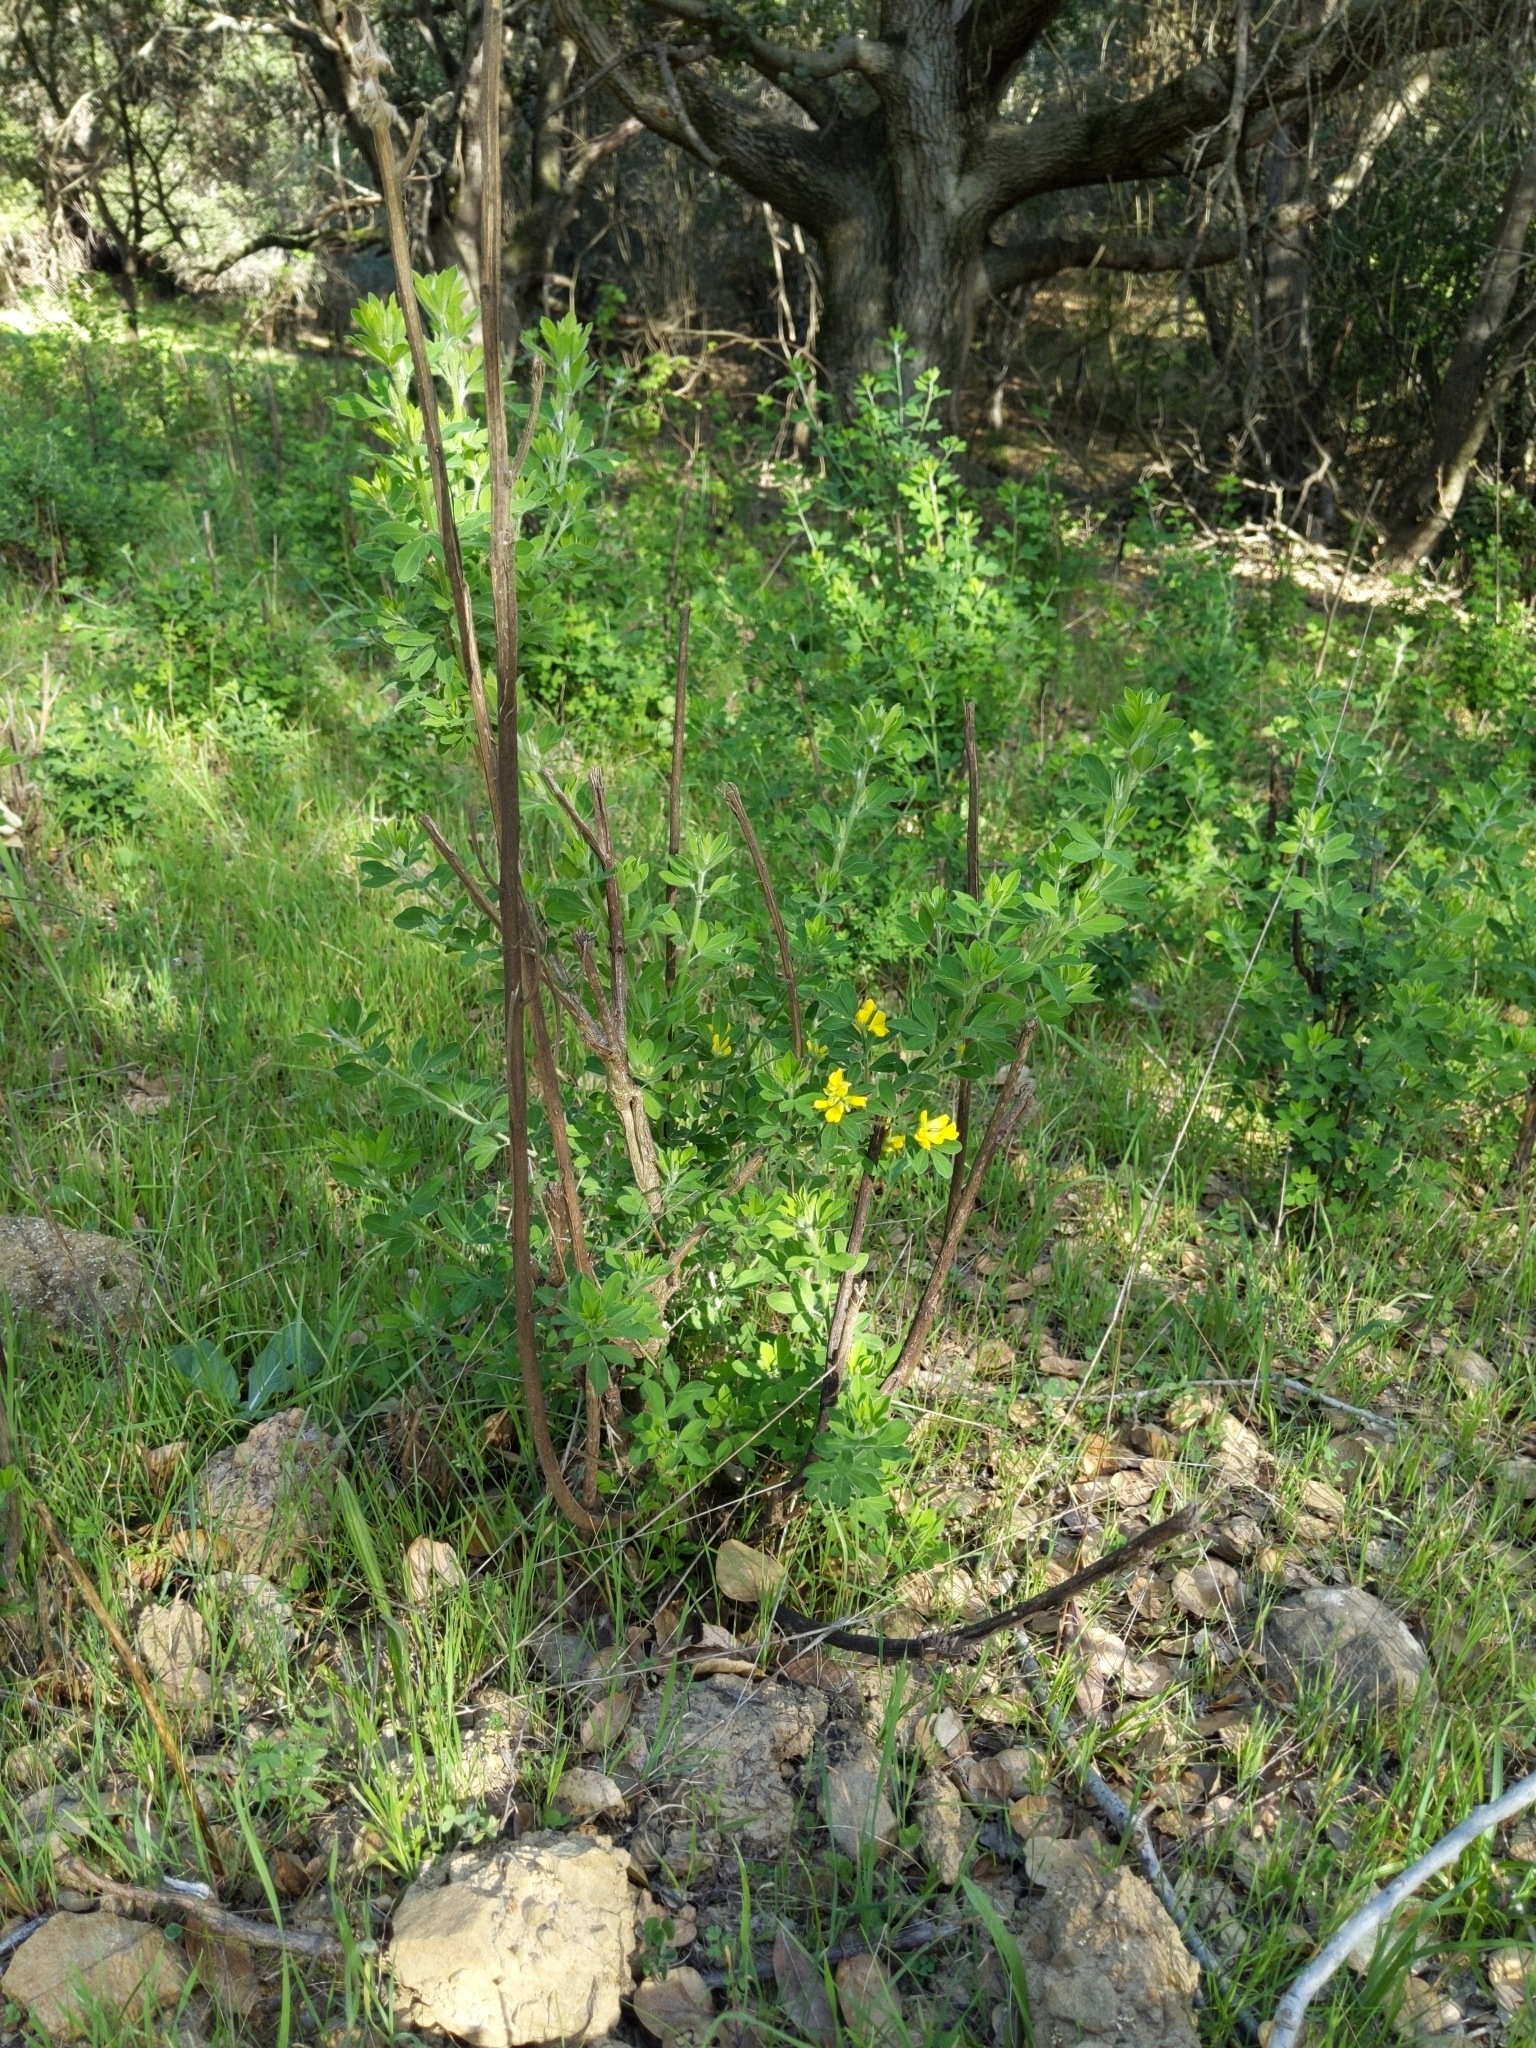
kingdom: Plantae
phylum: Tracheophyta
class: Magnoliopsida
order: Fabales
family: Fabaceae
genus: Genista
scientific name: Genista monspessulana
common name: Montpellier broom
